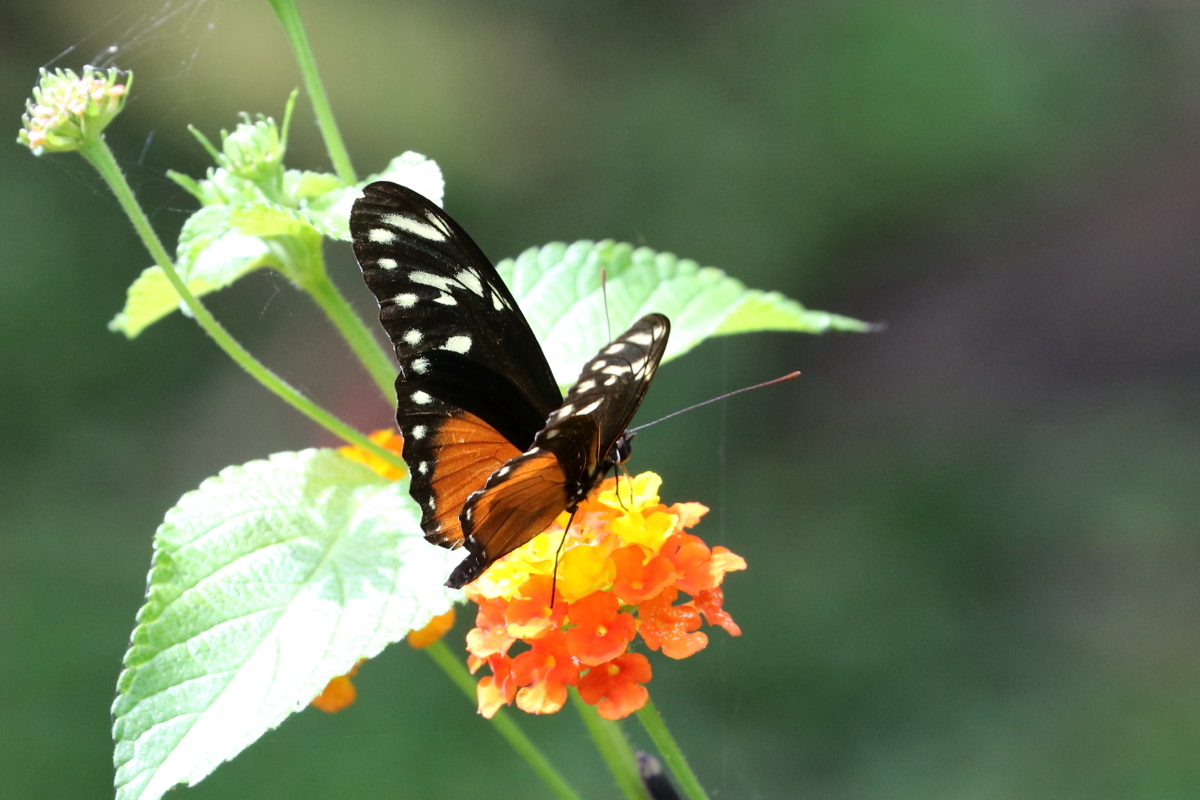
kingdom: Animalia
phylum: Arthropoda
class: Insecta
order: Lepidoptera
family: Nymphalidae
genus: Heliconius
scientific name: Heliconius hecalesia
